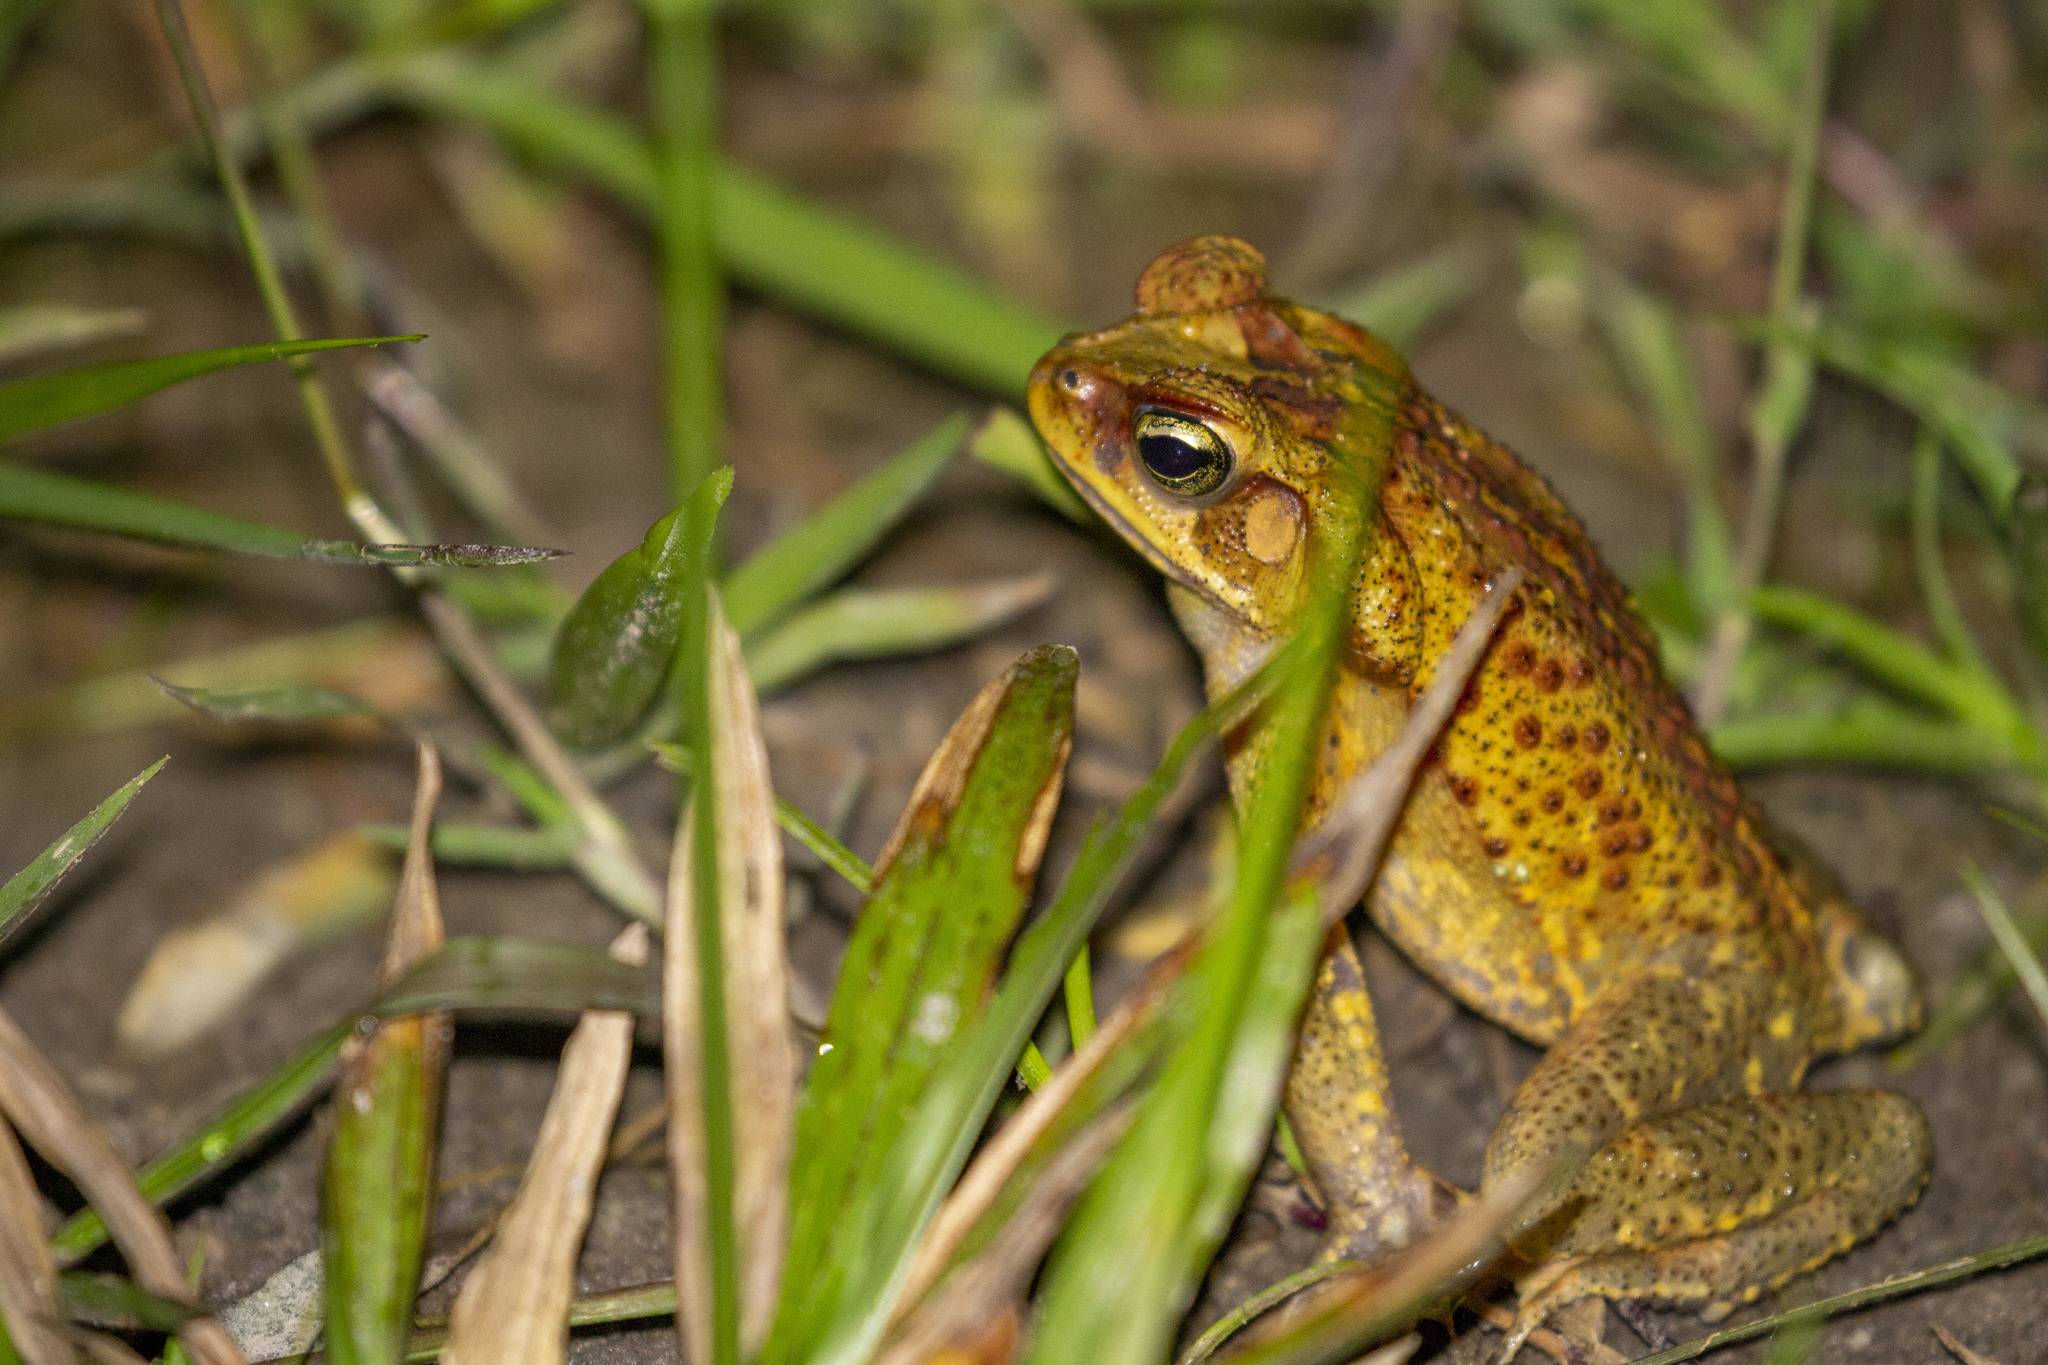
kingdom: Animalia
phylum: Chordata
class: Amphibia
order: Anura
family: Bufonidae
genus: Rhinella
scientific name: Rhinella crucifer
